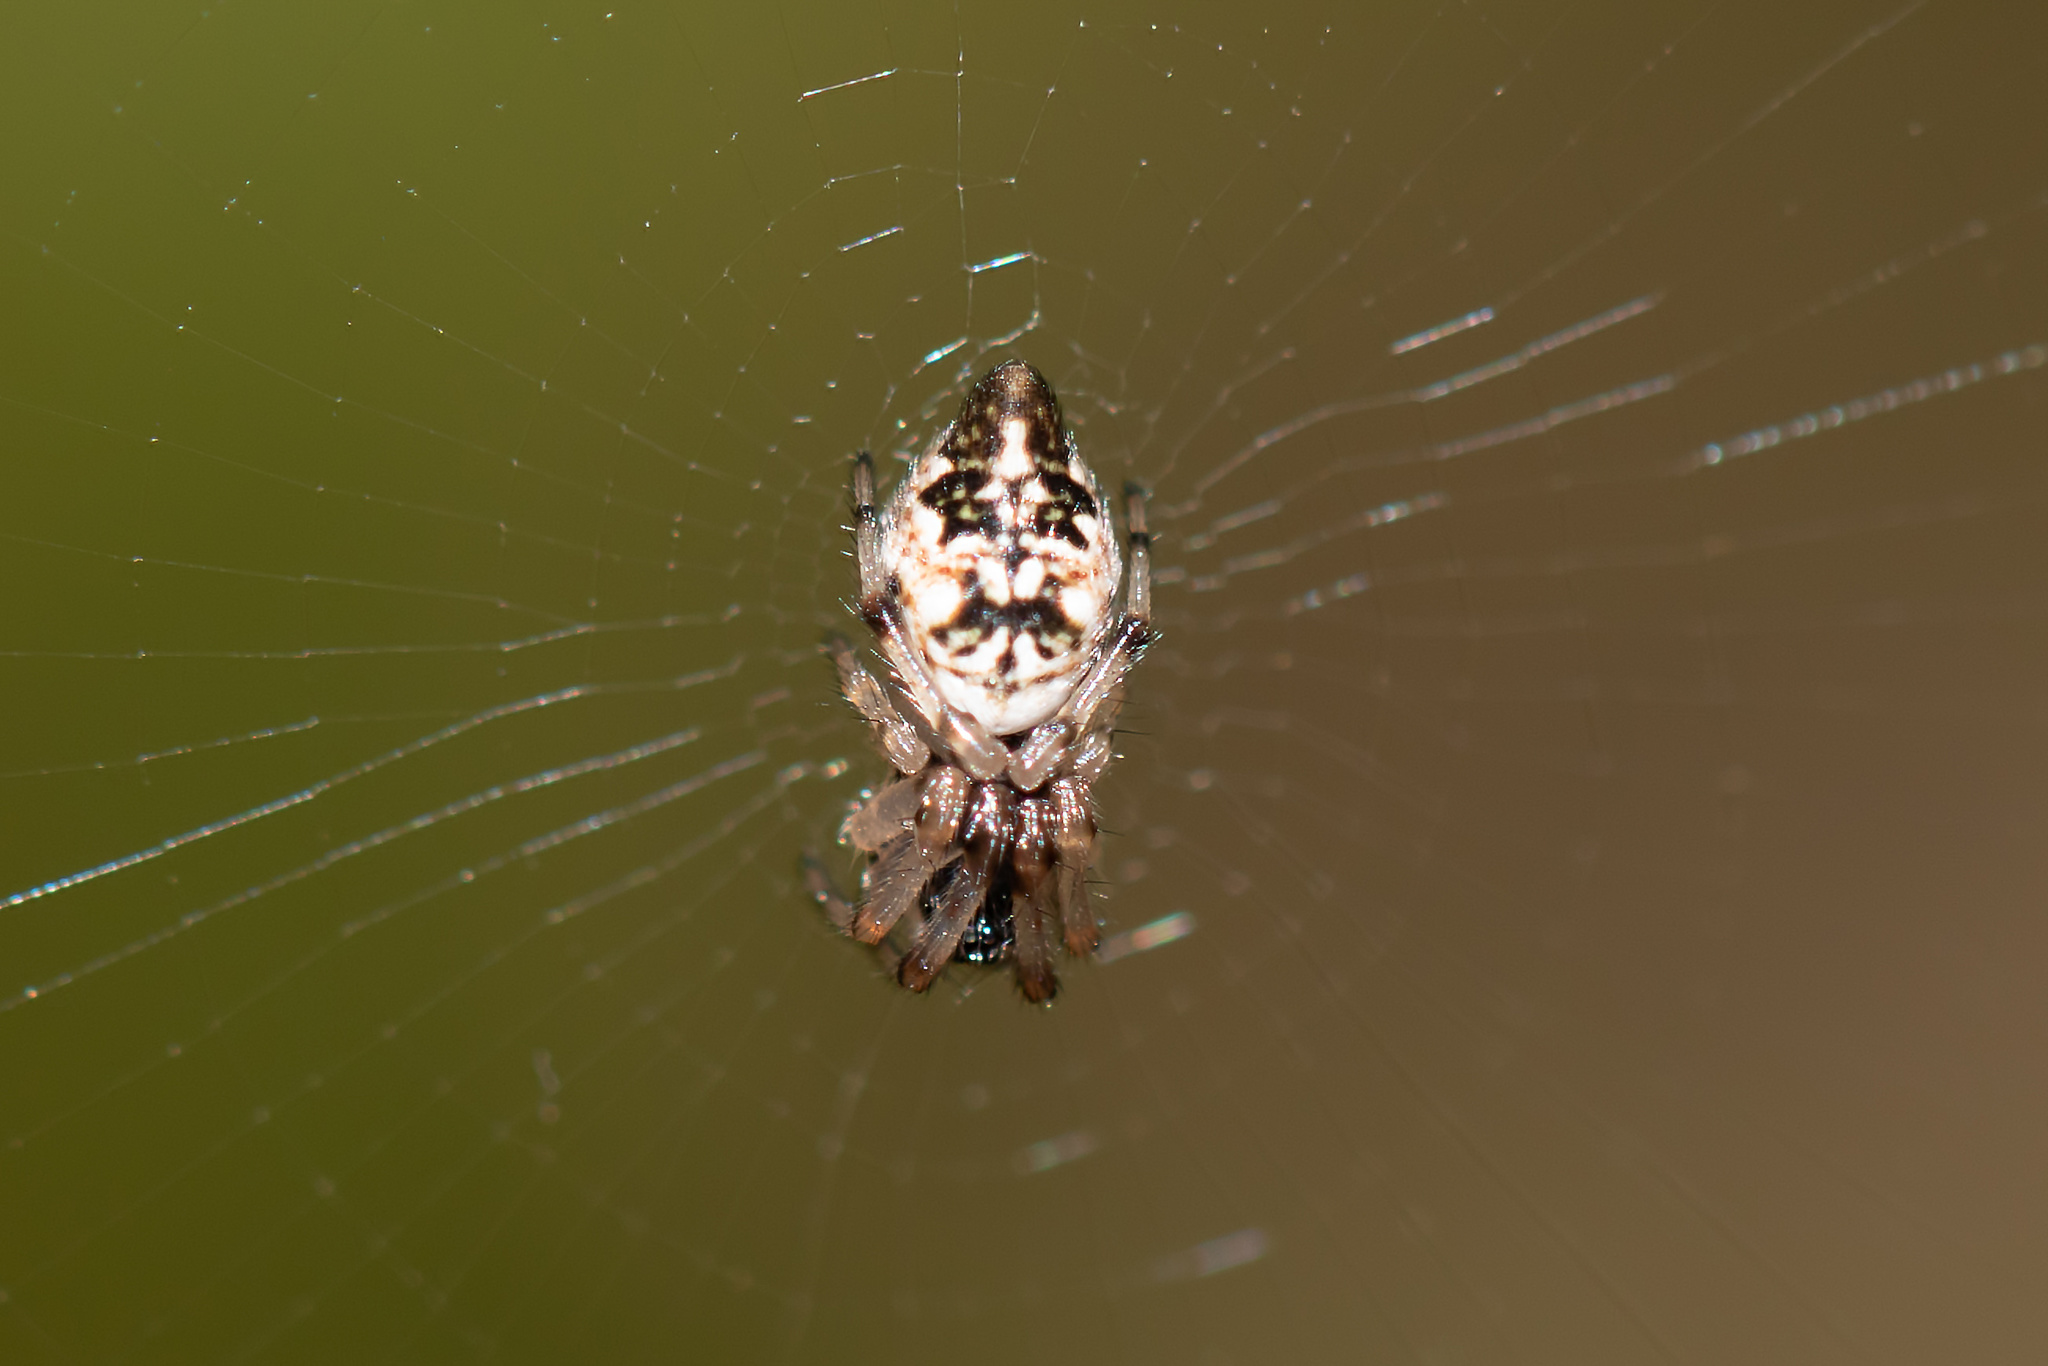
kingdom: Animalia
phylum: Arthropoda
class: Arachnida
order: Araneae
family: Araneidae
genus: Cyclosa
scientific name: Cyclosa turbinata
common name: Orb weavers
